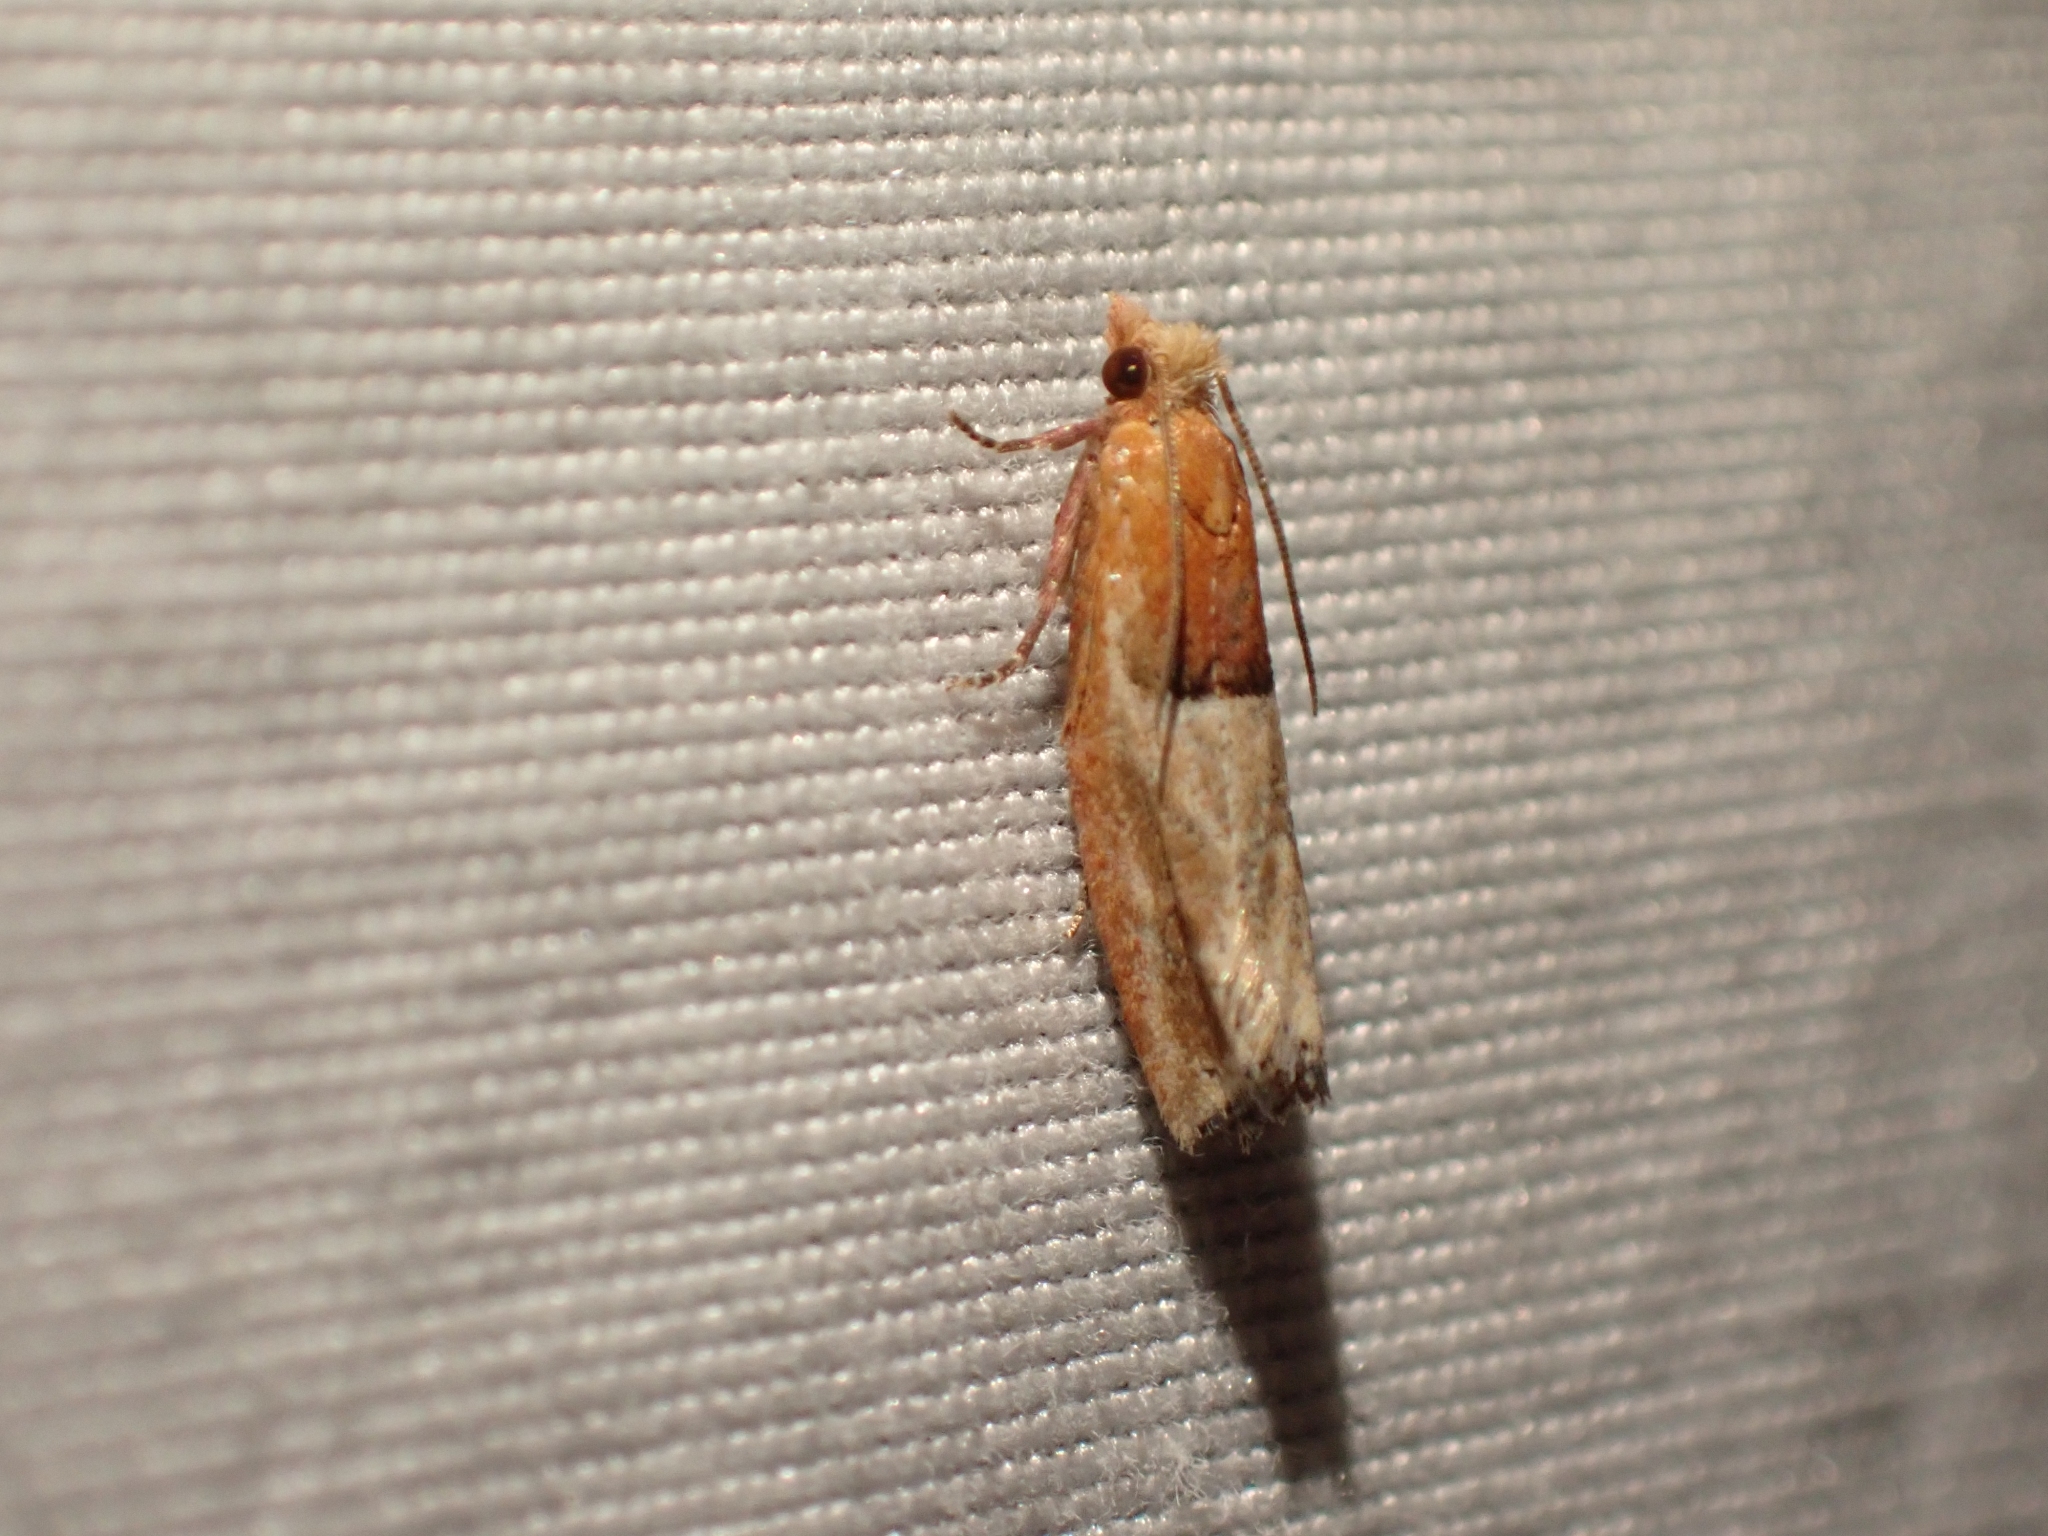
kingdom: Animalia
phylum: Arthropoda
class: Insecta
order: Lepidoptera
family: Tortricidae
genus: Epinotia
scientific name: Epinotia johnsonana
